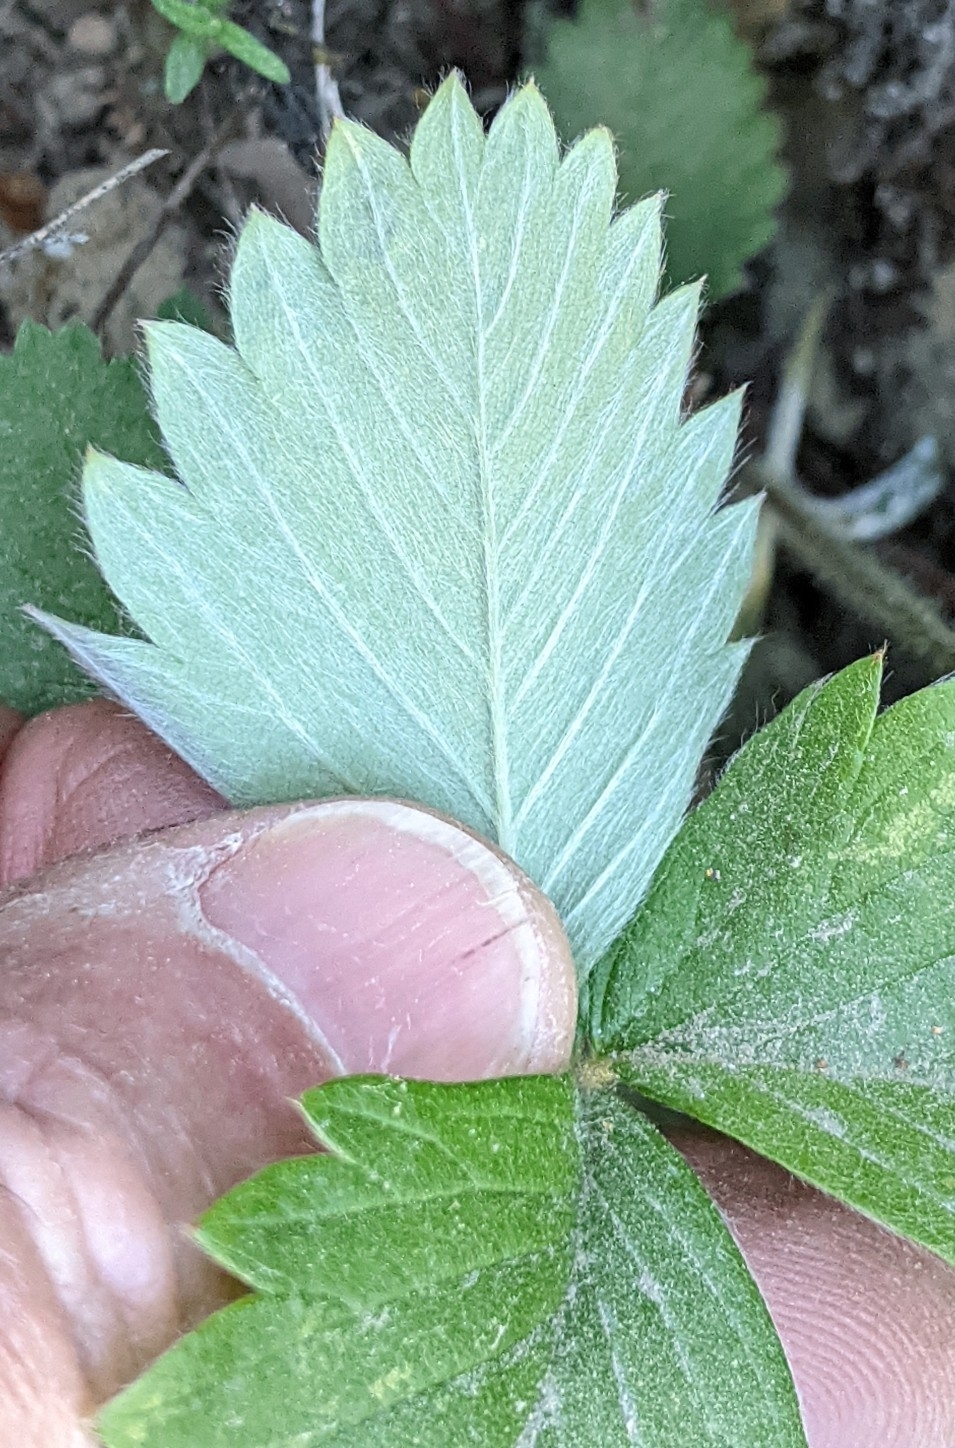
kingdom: Plantae
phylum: Tracheophyta
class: Magnoliopsida
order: Rosales
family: Rosaceae
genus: Fragaria
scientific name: Fragaria vesca
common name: Wild strawberry
